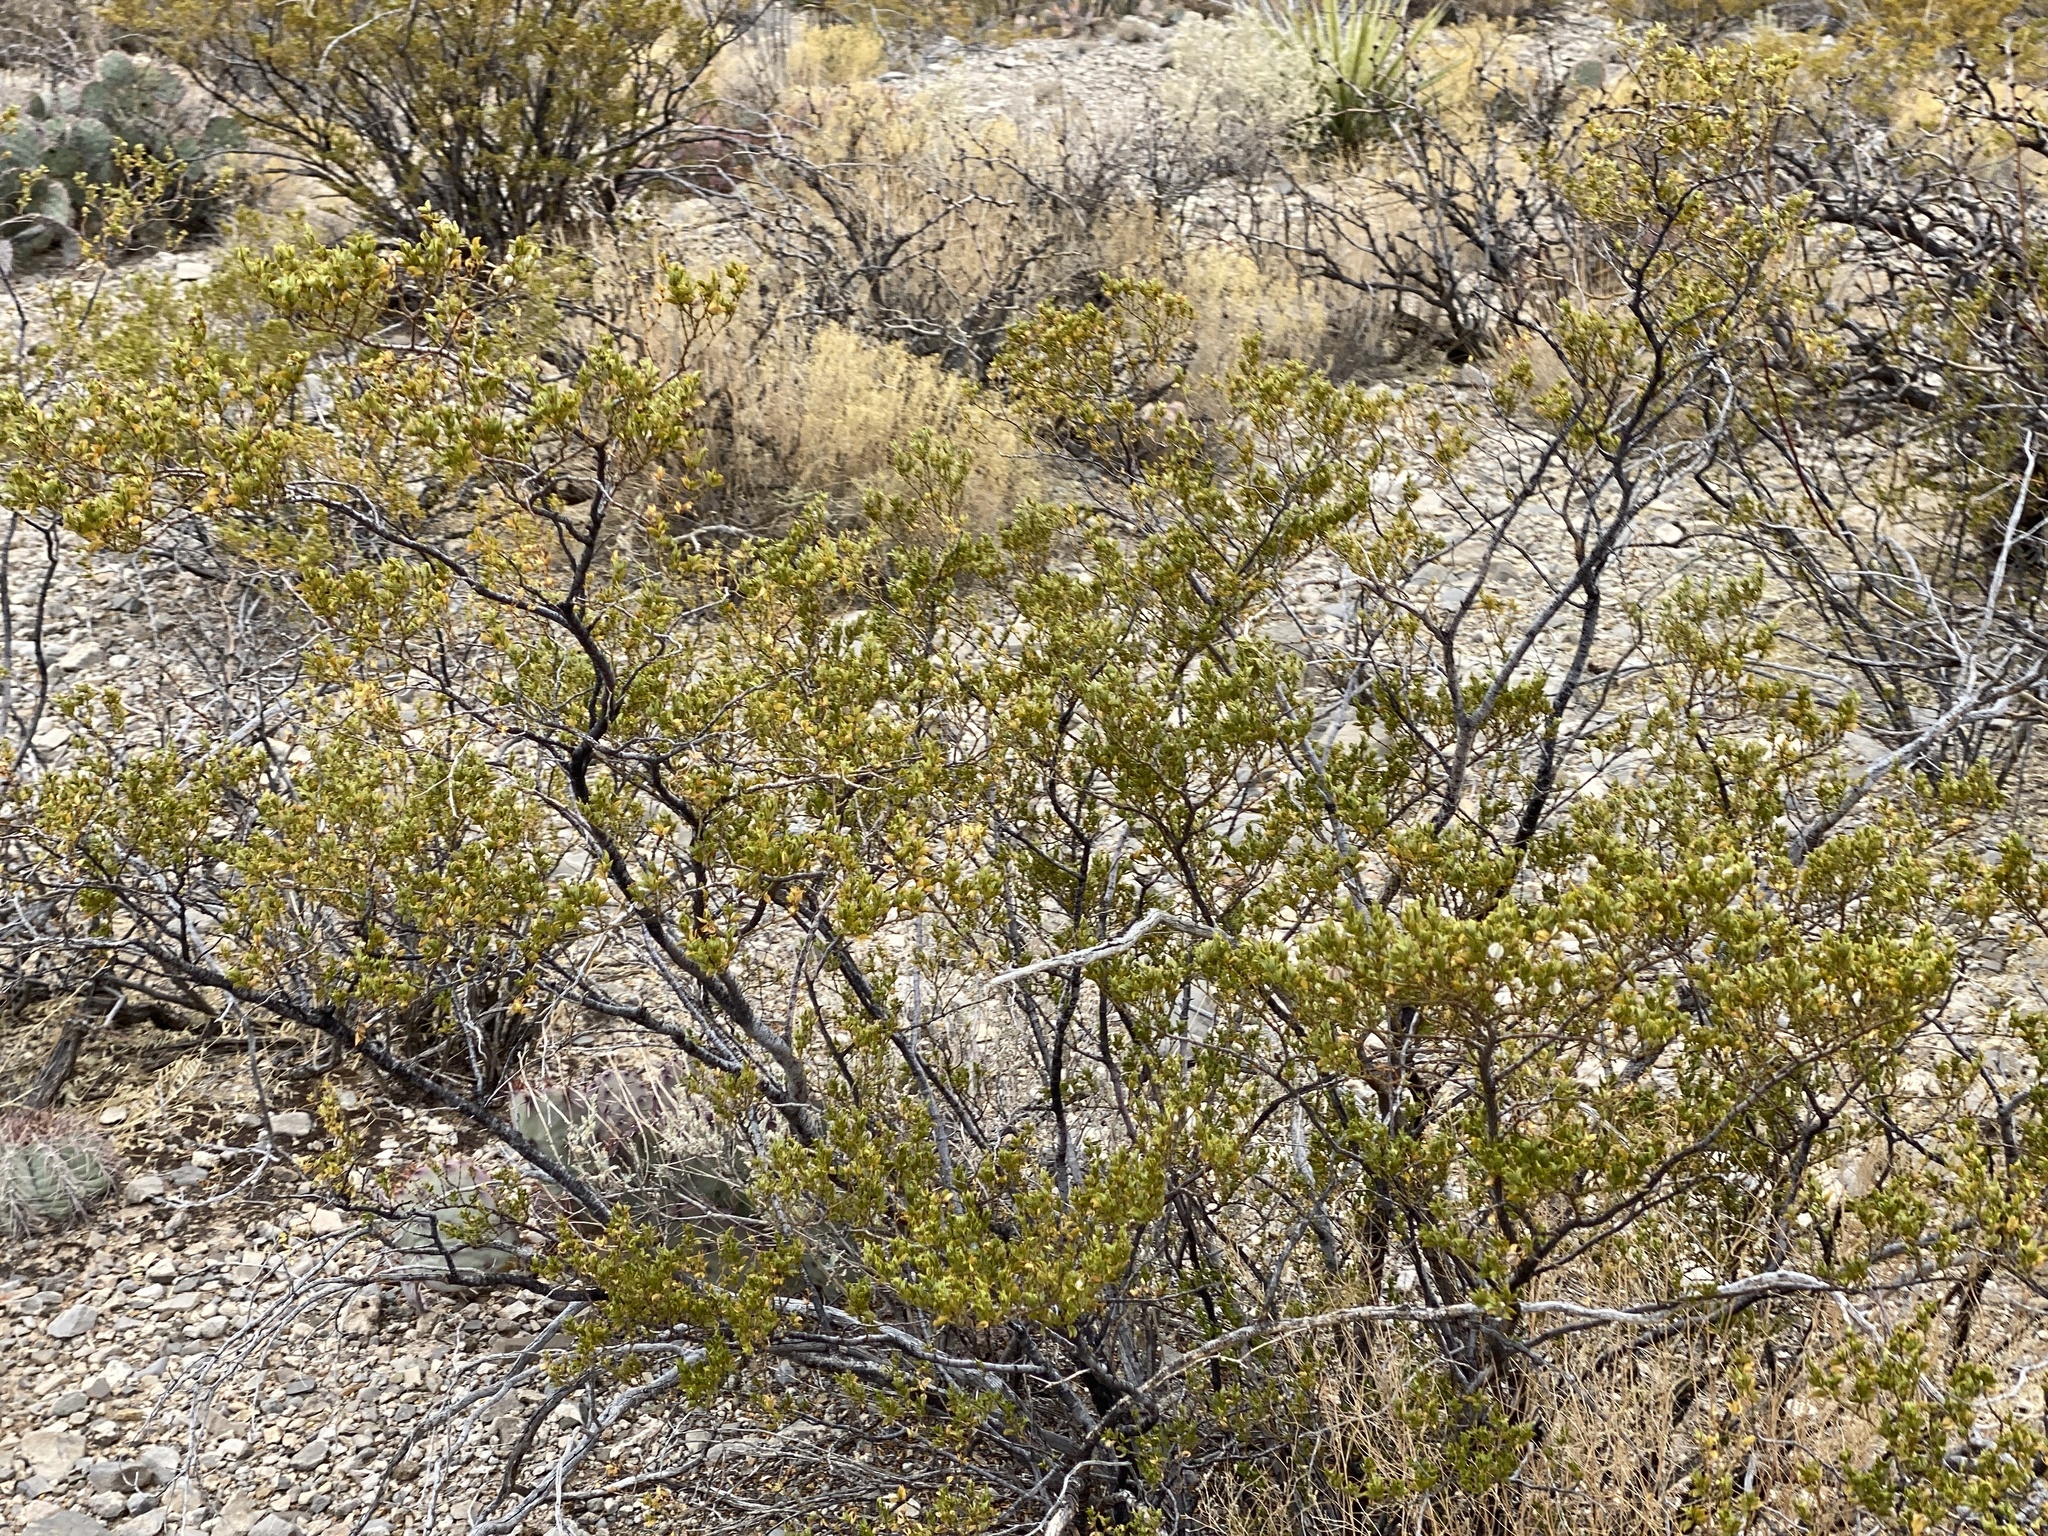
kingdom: Plantae
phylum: Tracheophyta
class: Magnoliopsida
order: Zygophyllales
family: Zygophyllaceae
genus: Larrea
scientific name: Larrea tridentata
